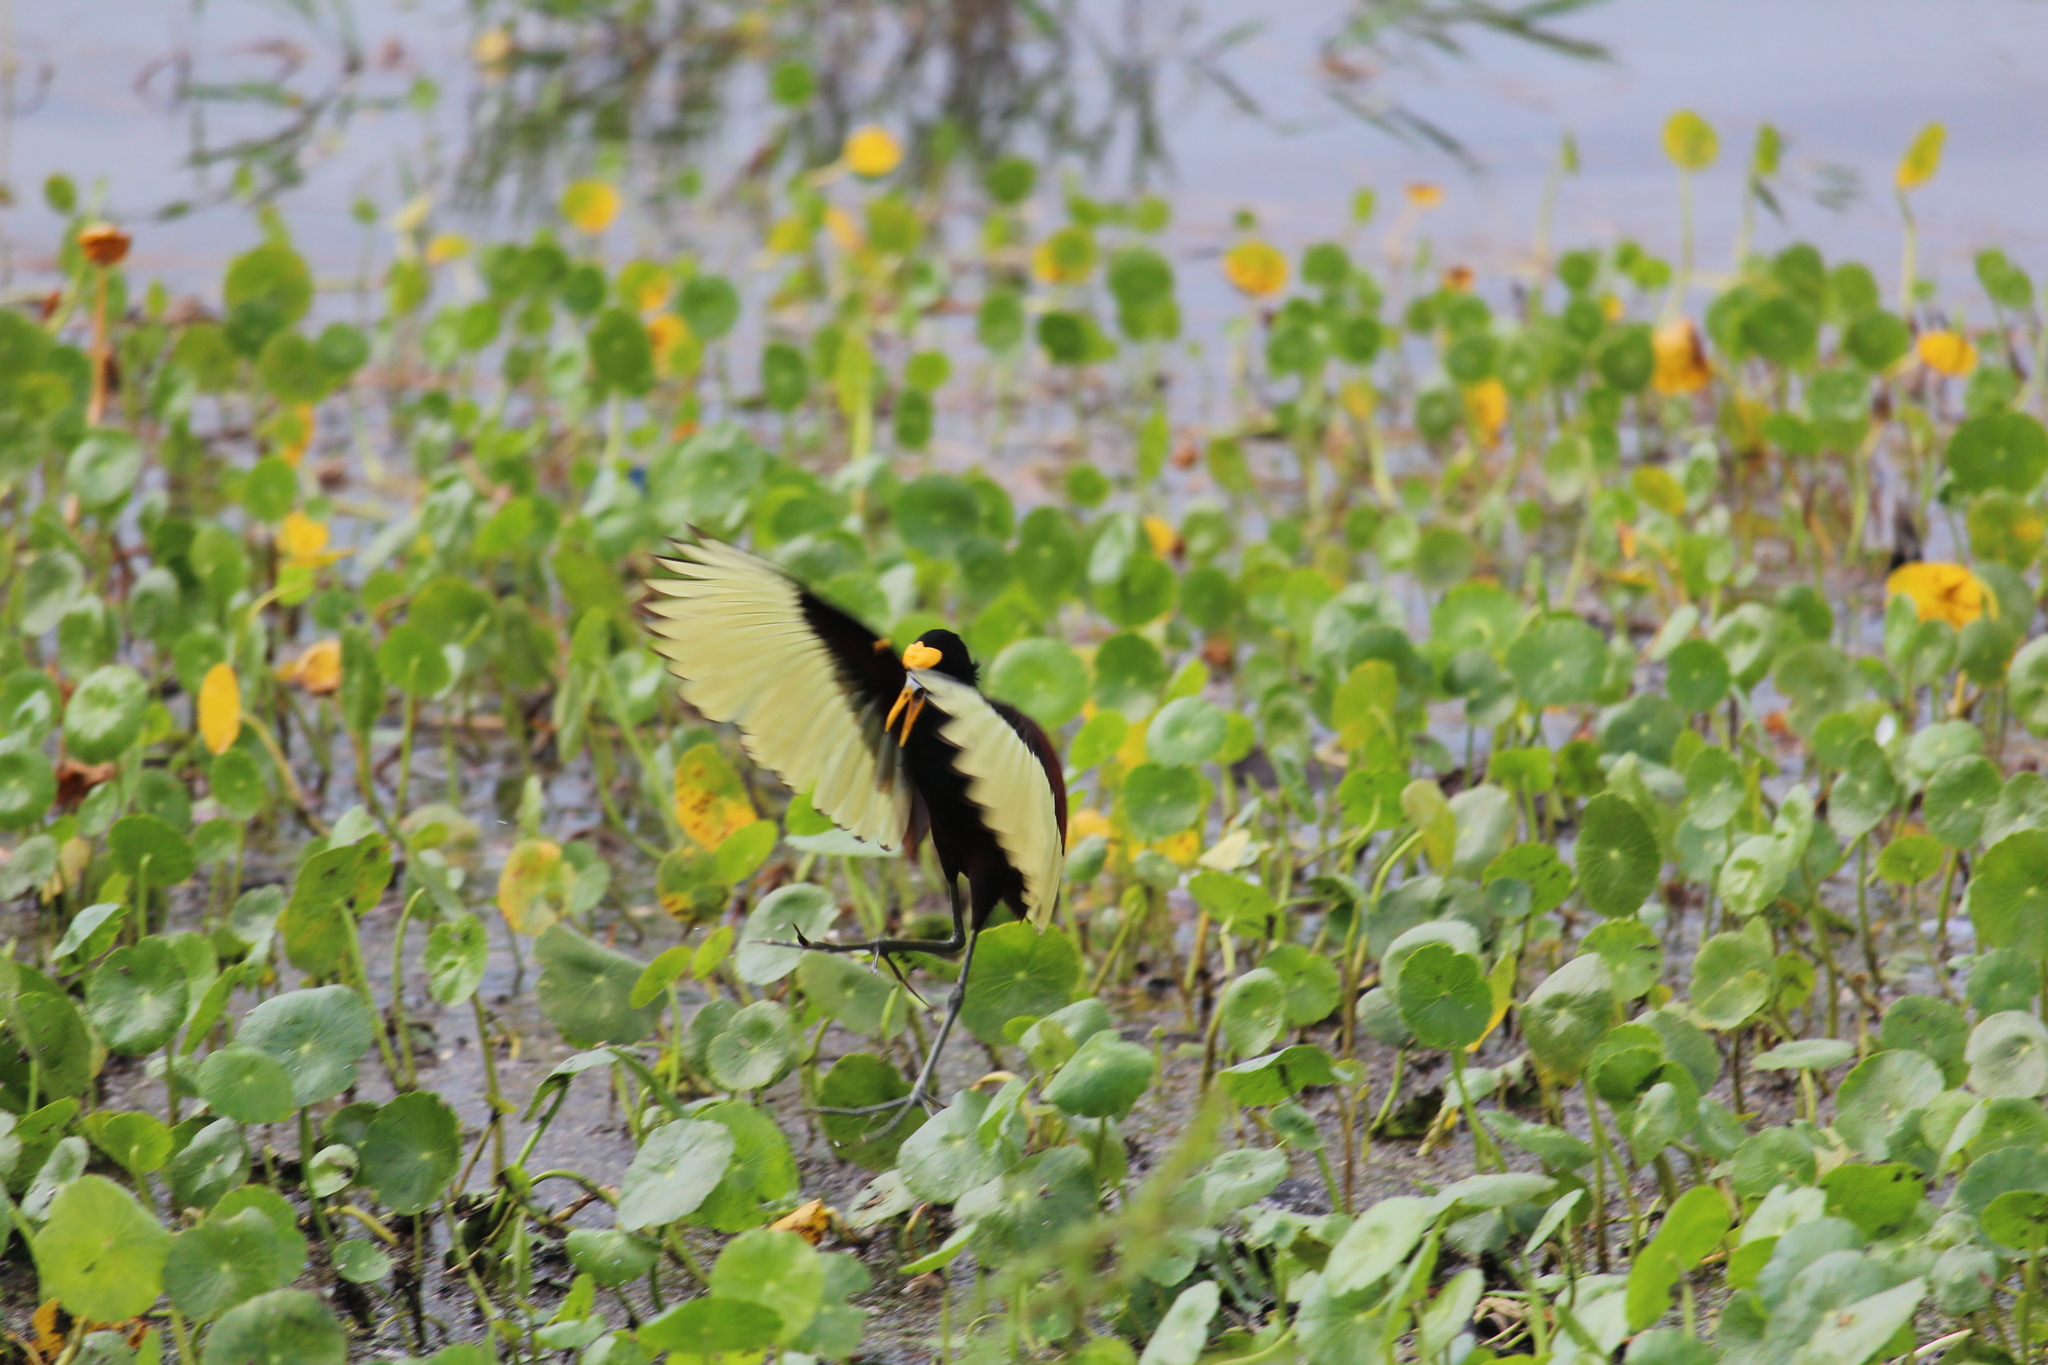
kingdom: Animalia
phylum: Chordata
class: Aves
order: Charadriiformes
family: Jacanidae
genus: Jacana
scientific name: Jacana spinosa
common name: Northern jacana
